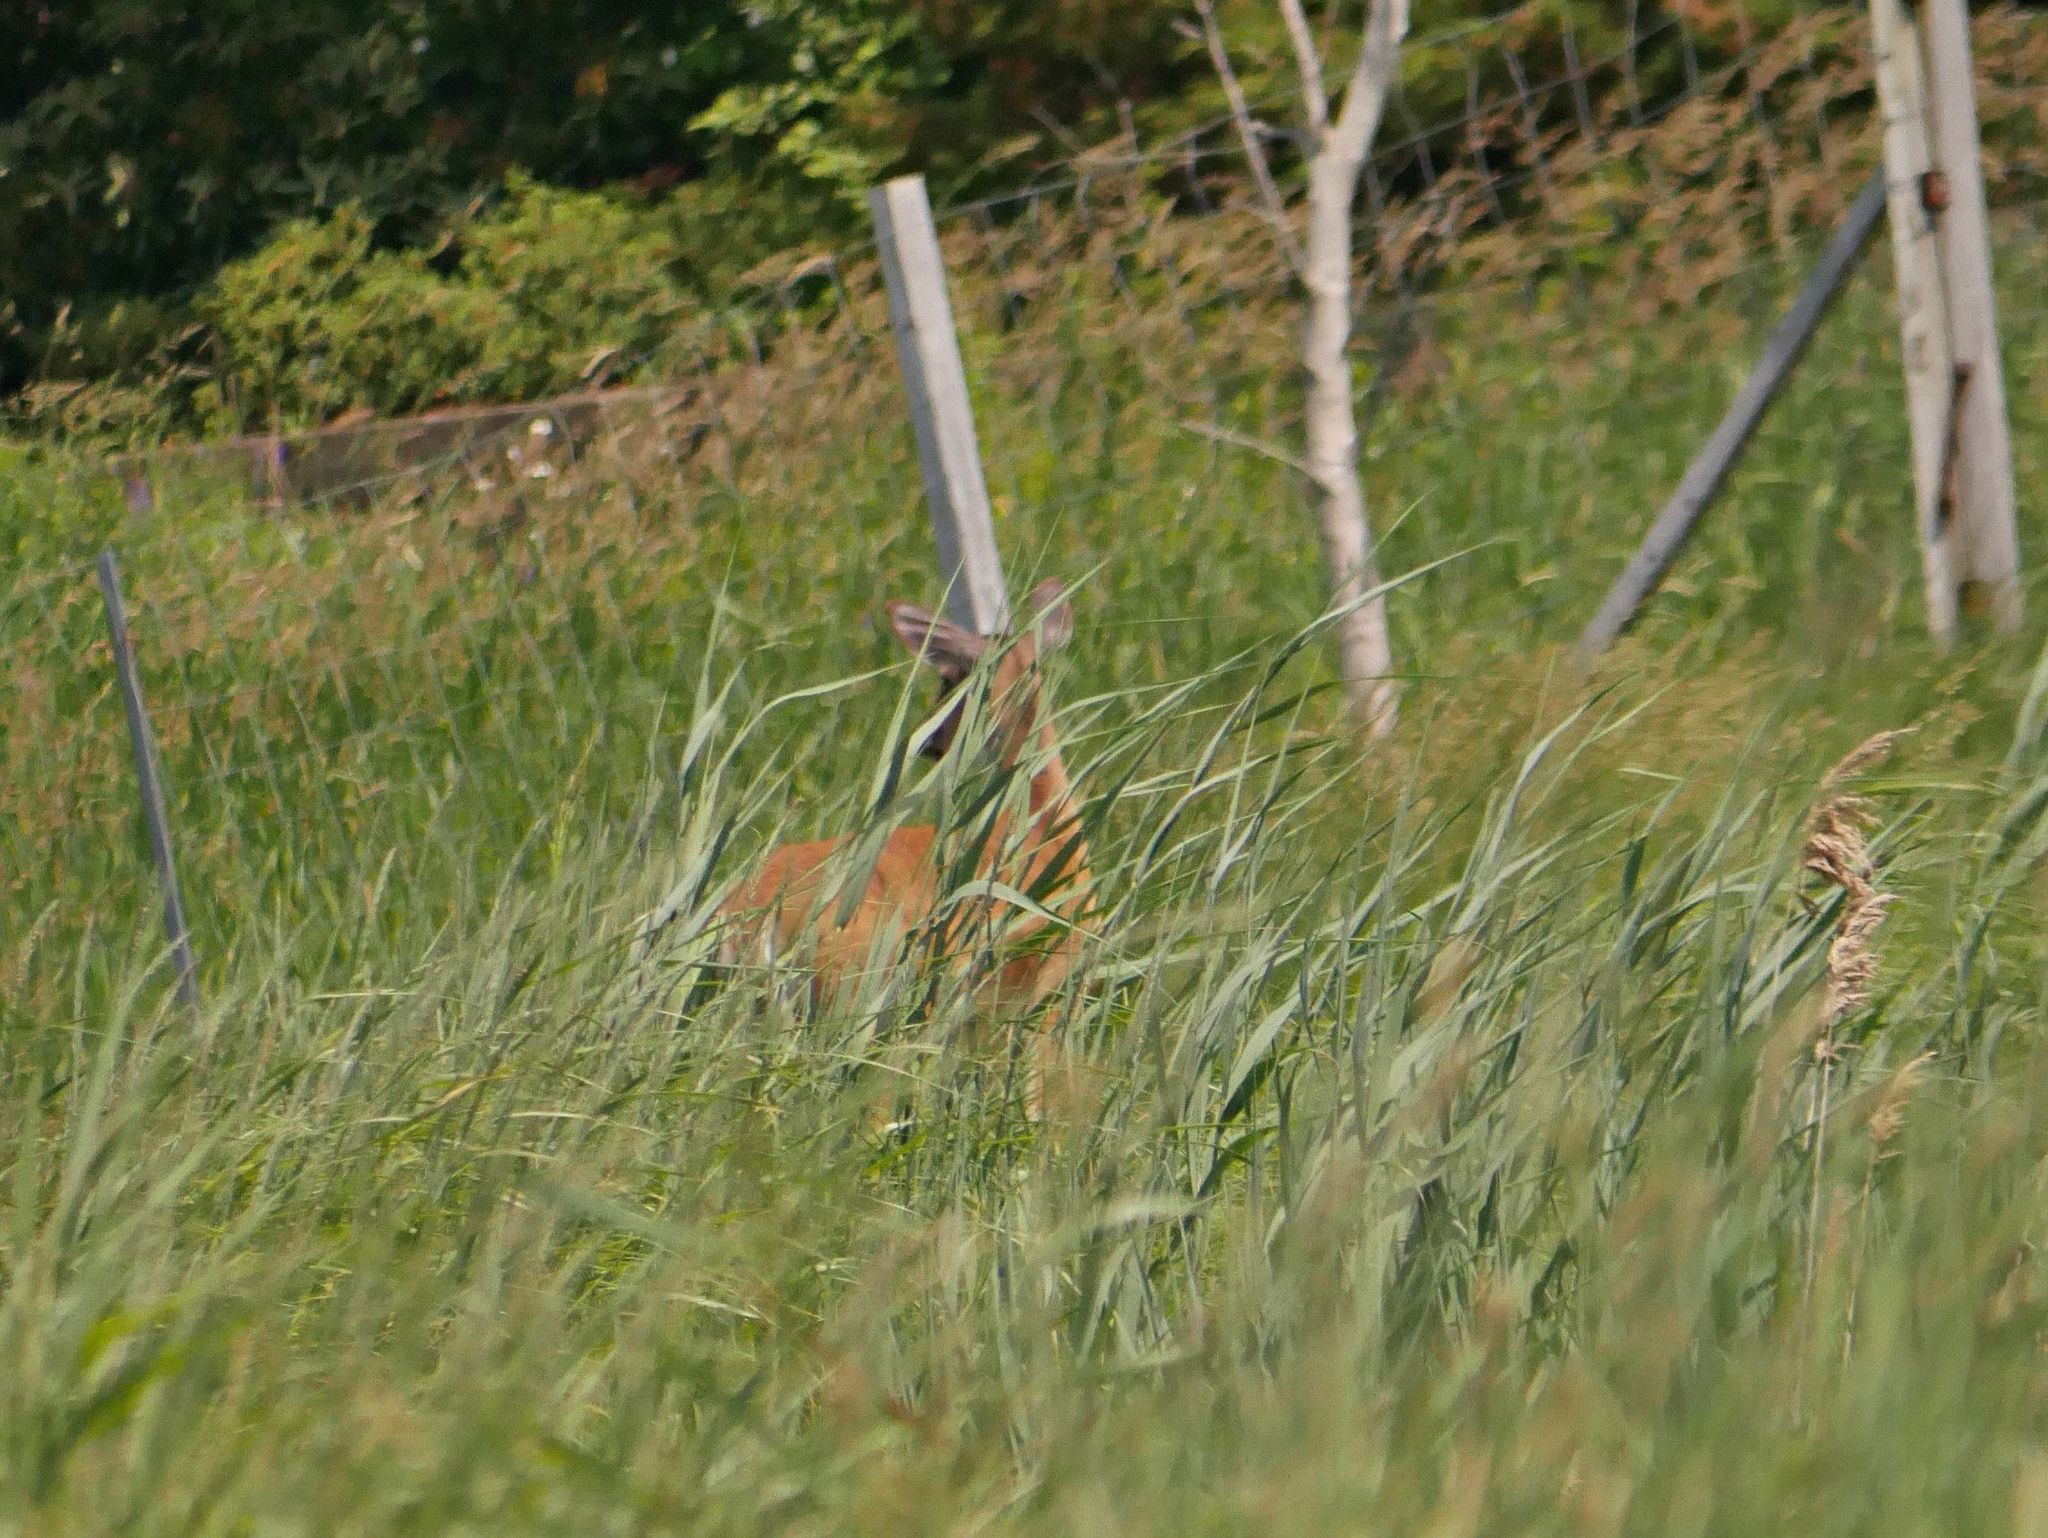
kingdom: Animalia
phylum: Chordata
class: Mammalia
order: Artiodactyla
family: Cervidae
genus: Odocoileus
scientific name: Odocoileus virginianus
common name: White-tailed deer
